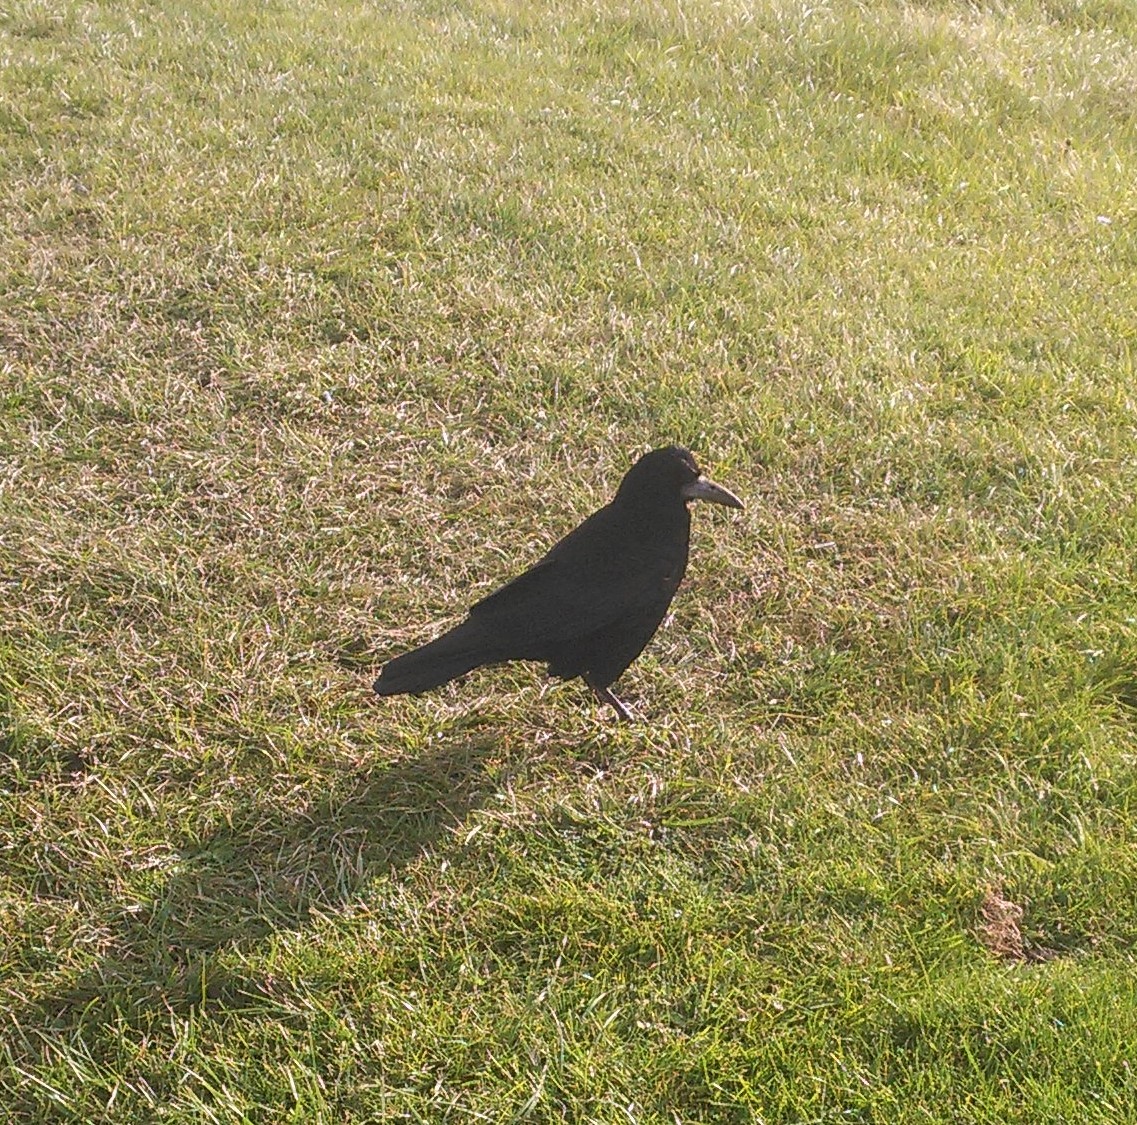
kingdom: Animalia
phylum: Chordata
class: Aves
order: Passeriformes
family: Corvidae
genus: Corvus
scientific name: Corvus frugilegus
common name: Rook
